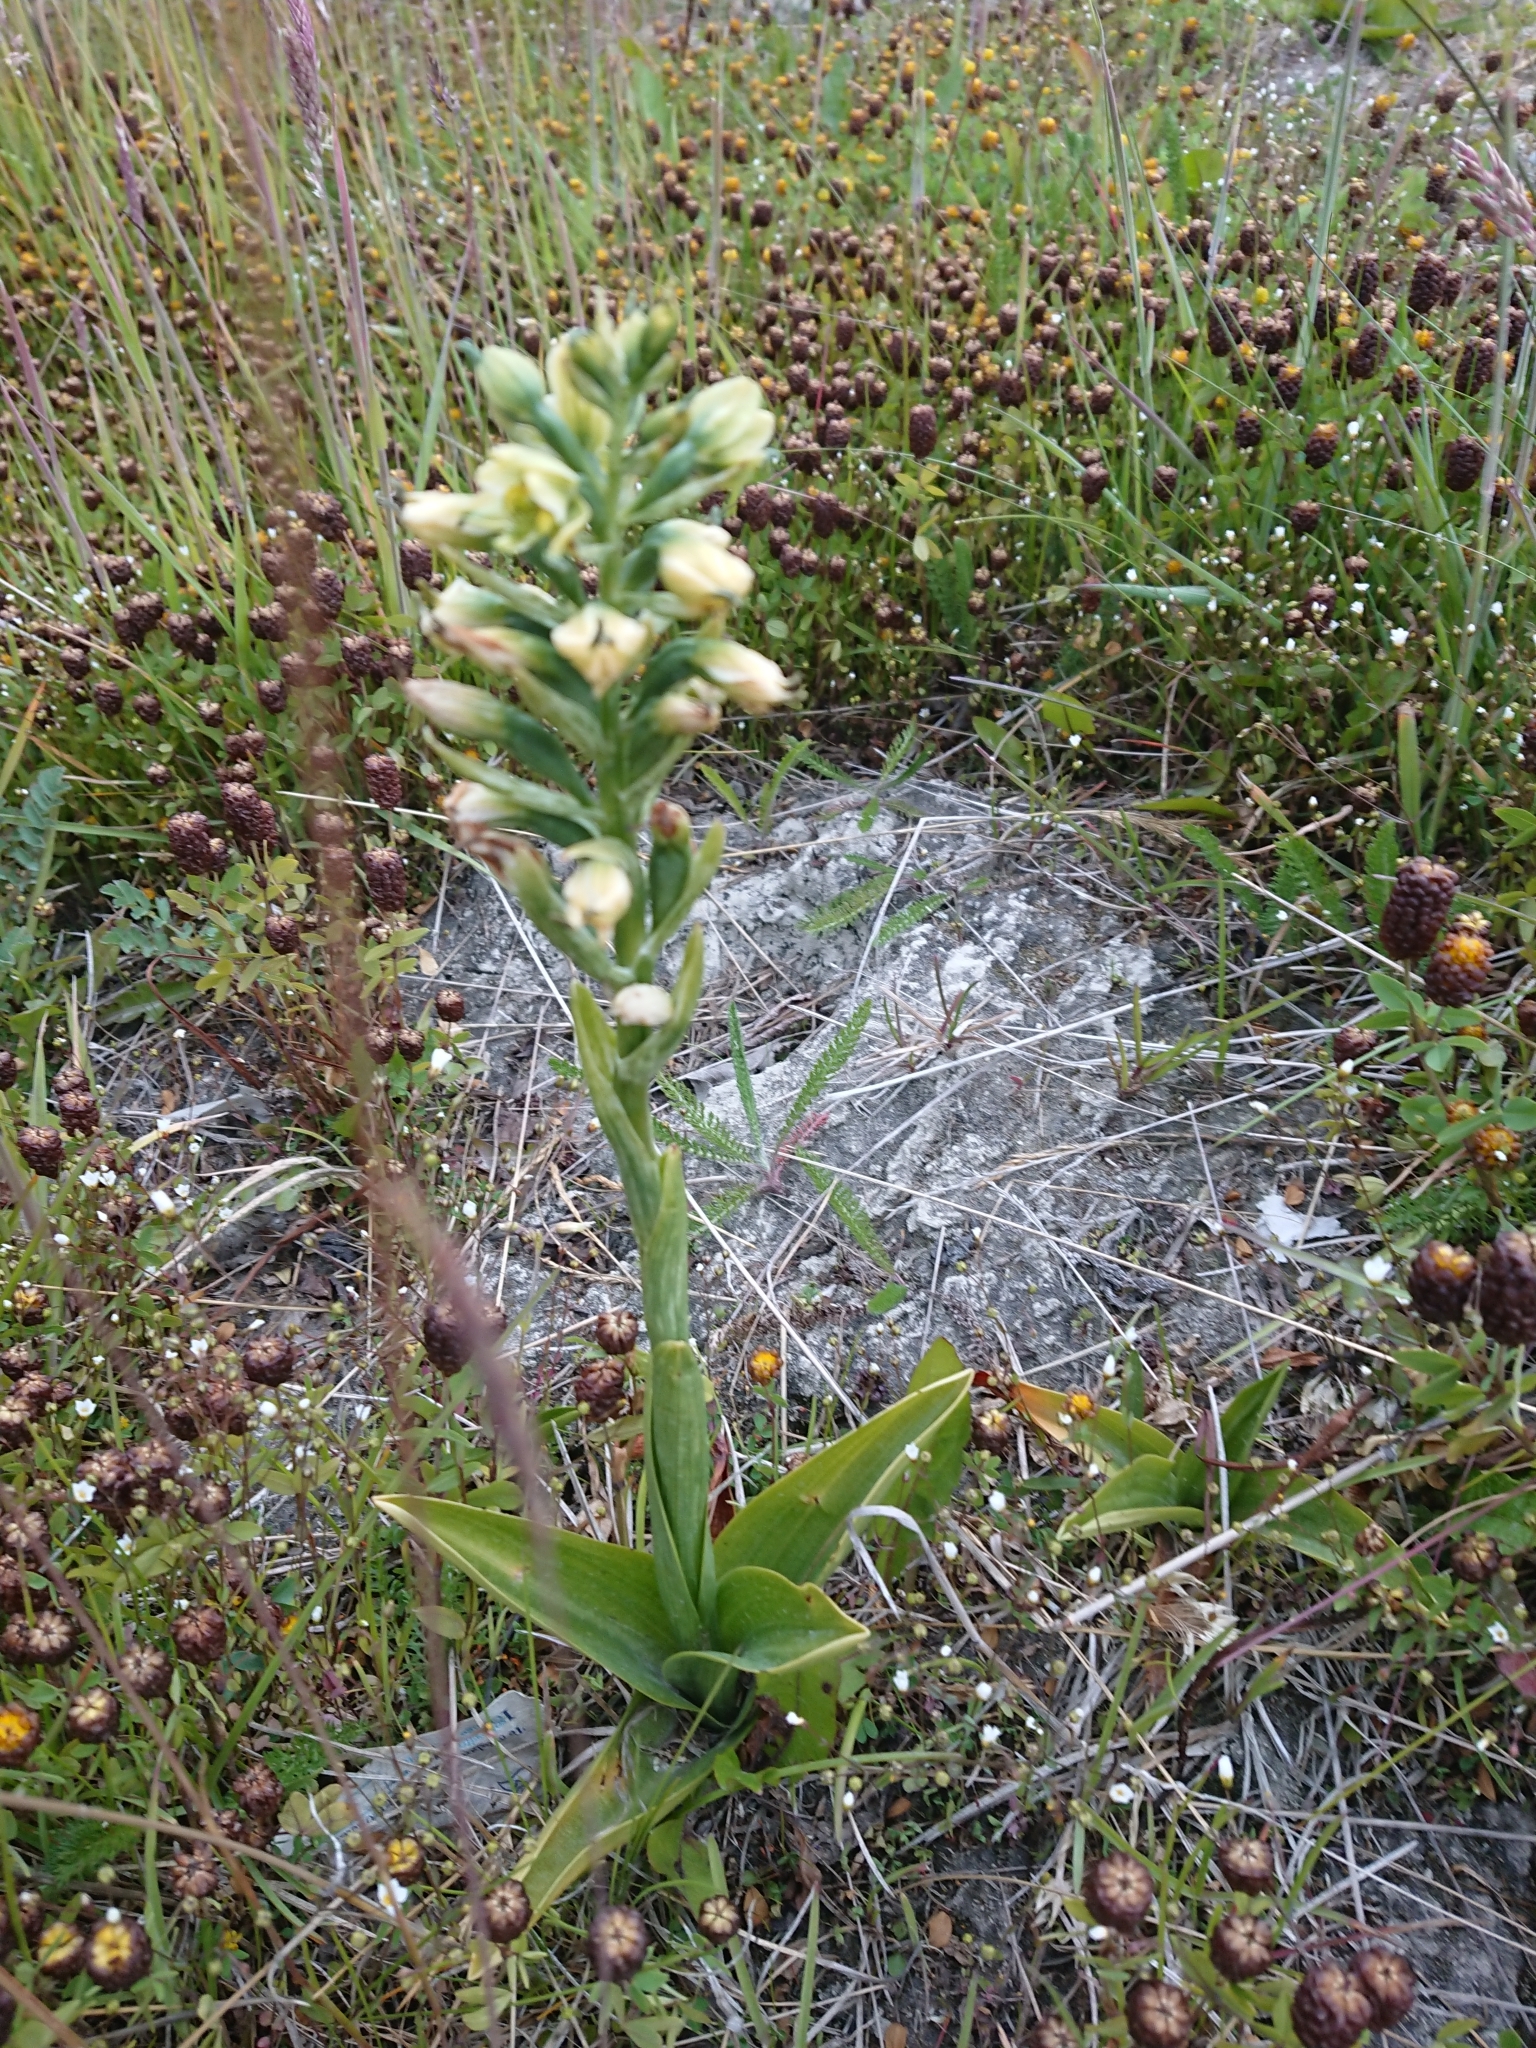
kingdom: Plantae
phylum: Tracheophyta
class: Liliopsida
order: Asparagales
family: Orchidaceae
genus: Gavilea
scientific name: Gavilea australis
